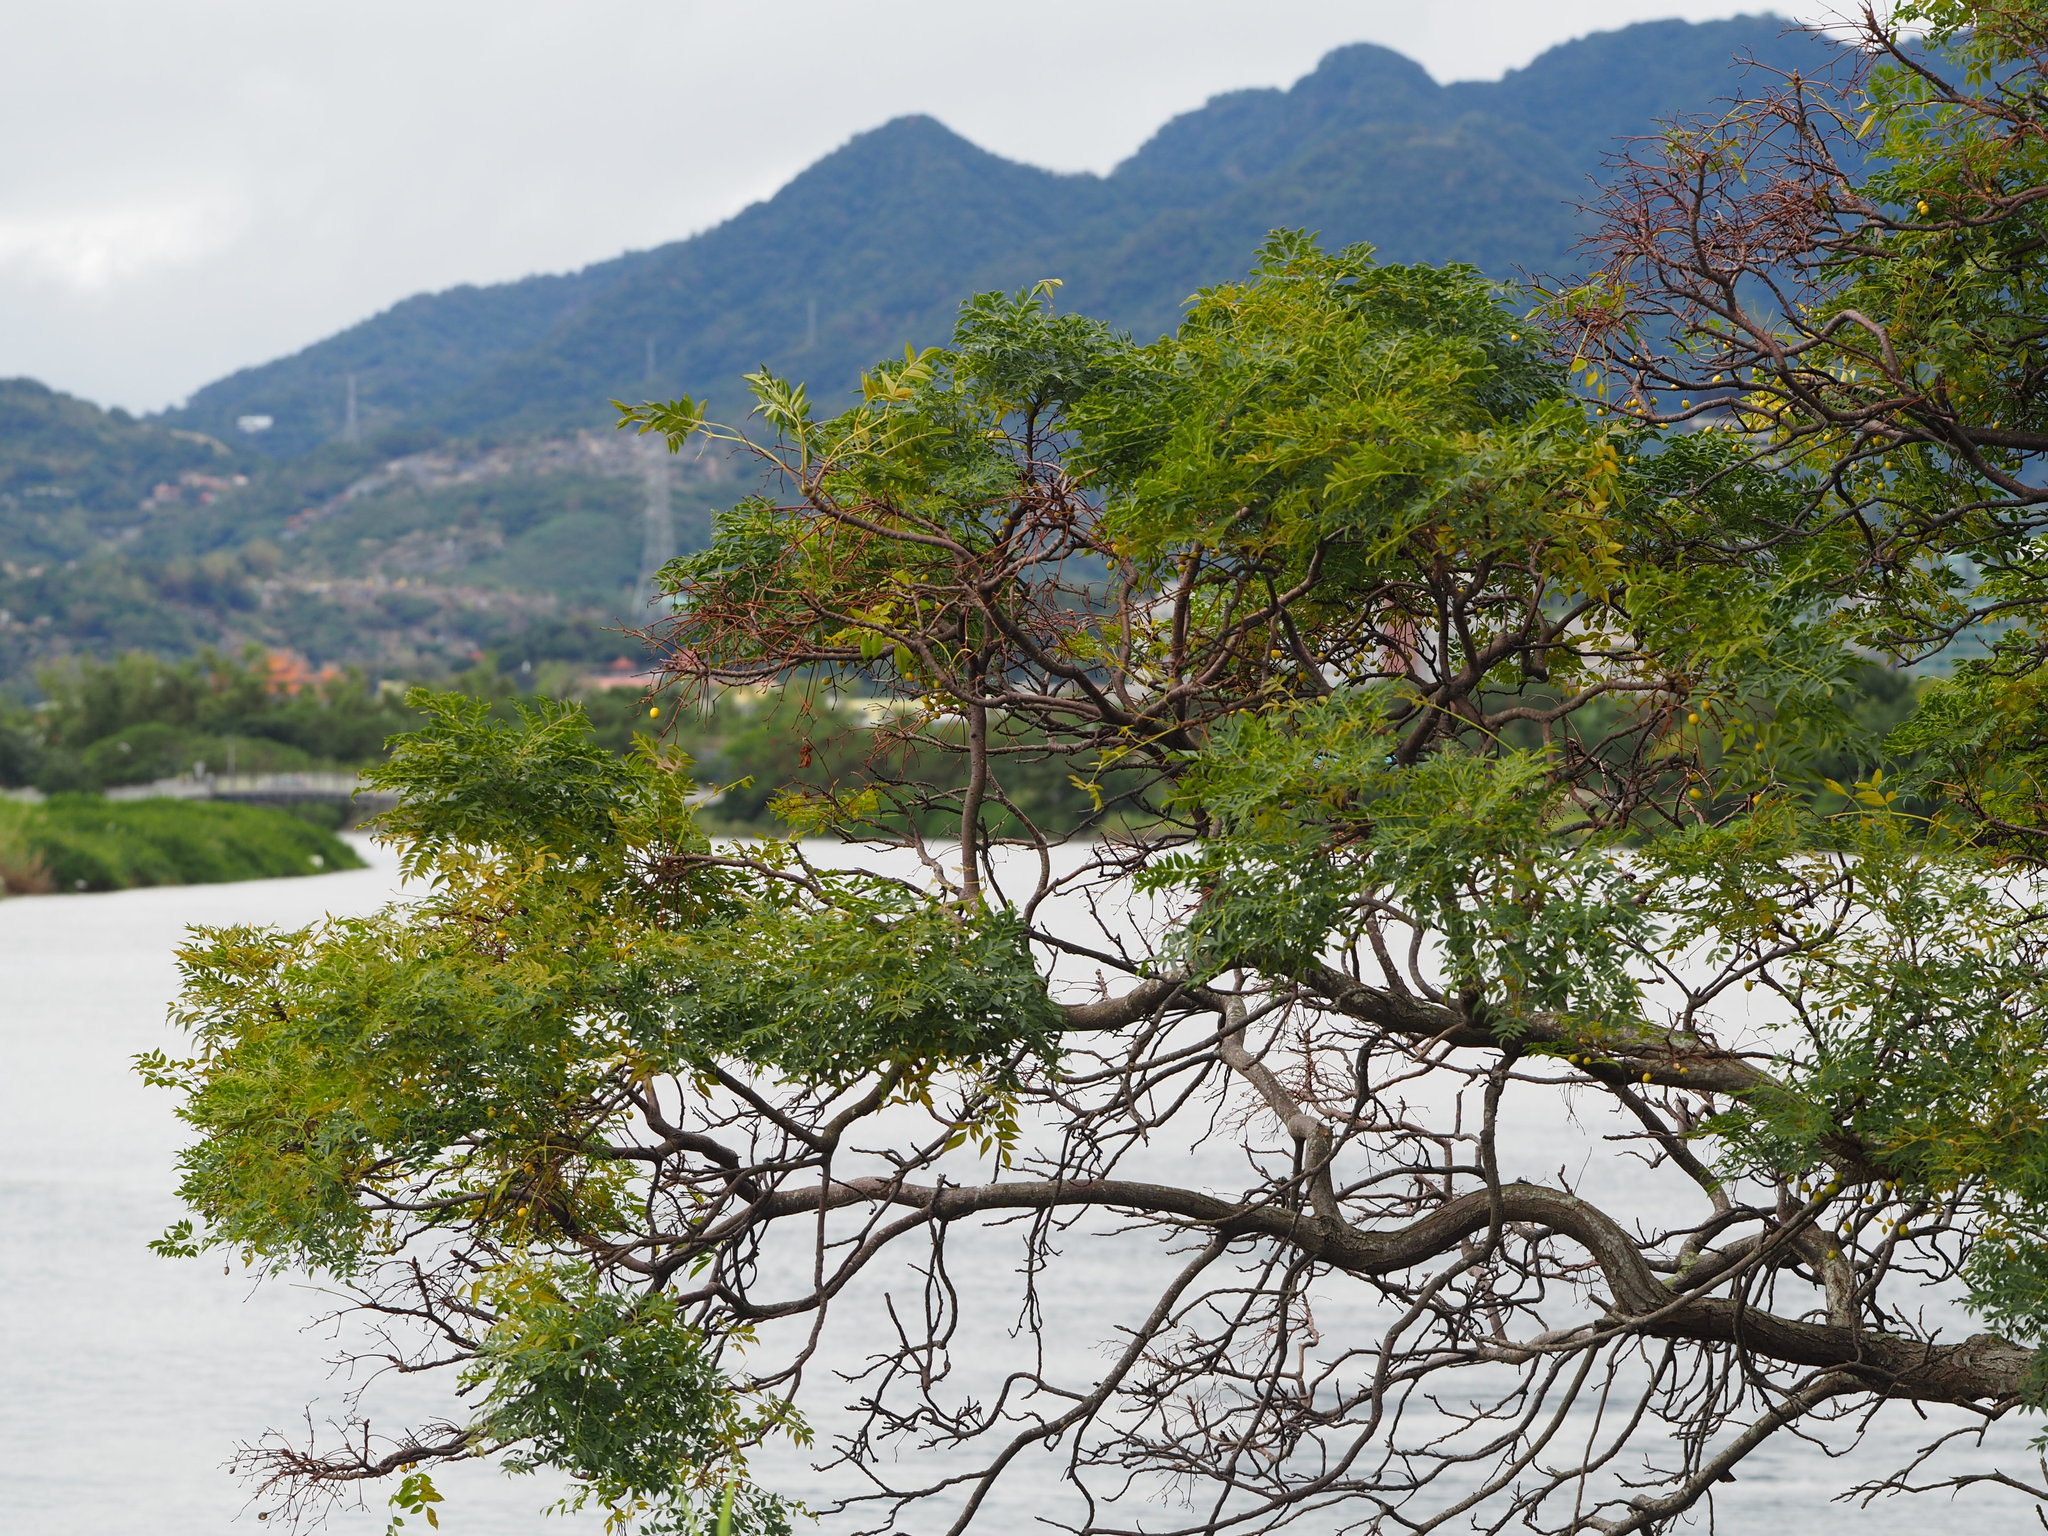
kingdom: Plantae
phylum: Tracheophyta
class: Magnoliopsida
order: Sapindales
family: Meliaceae
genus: Melia
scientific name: Melia azedarach
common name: Chinaberrytree
